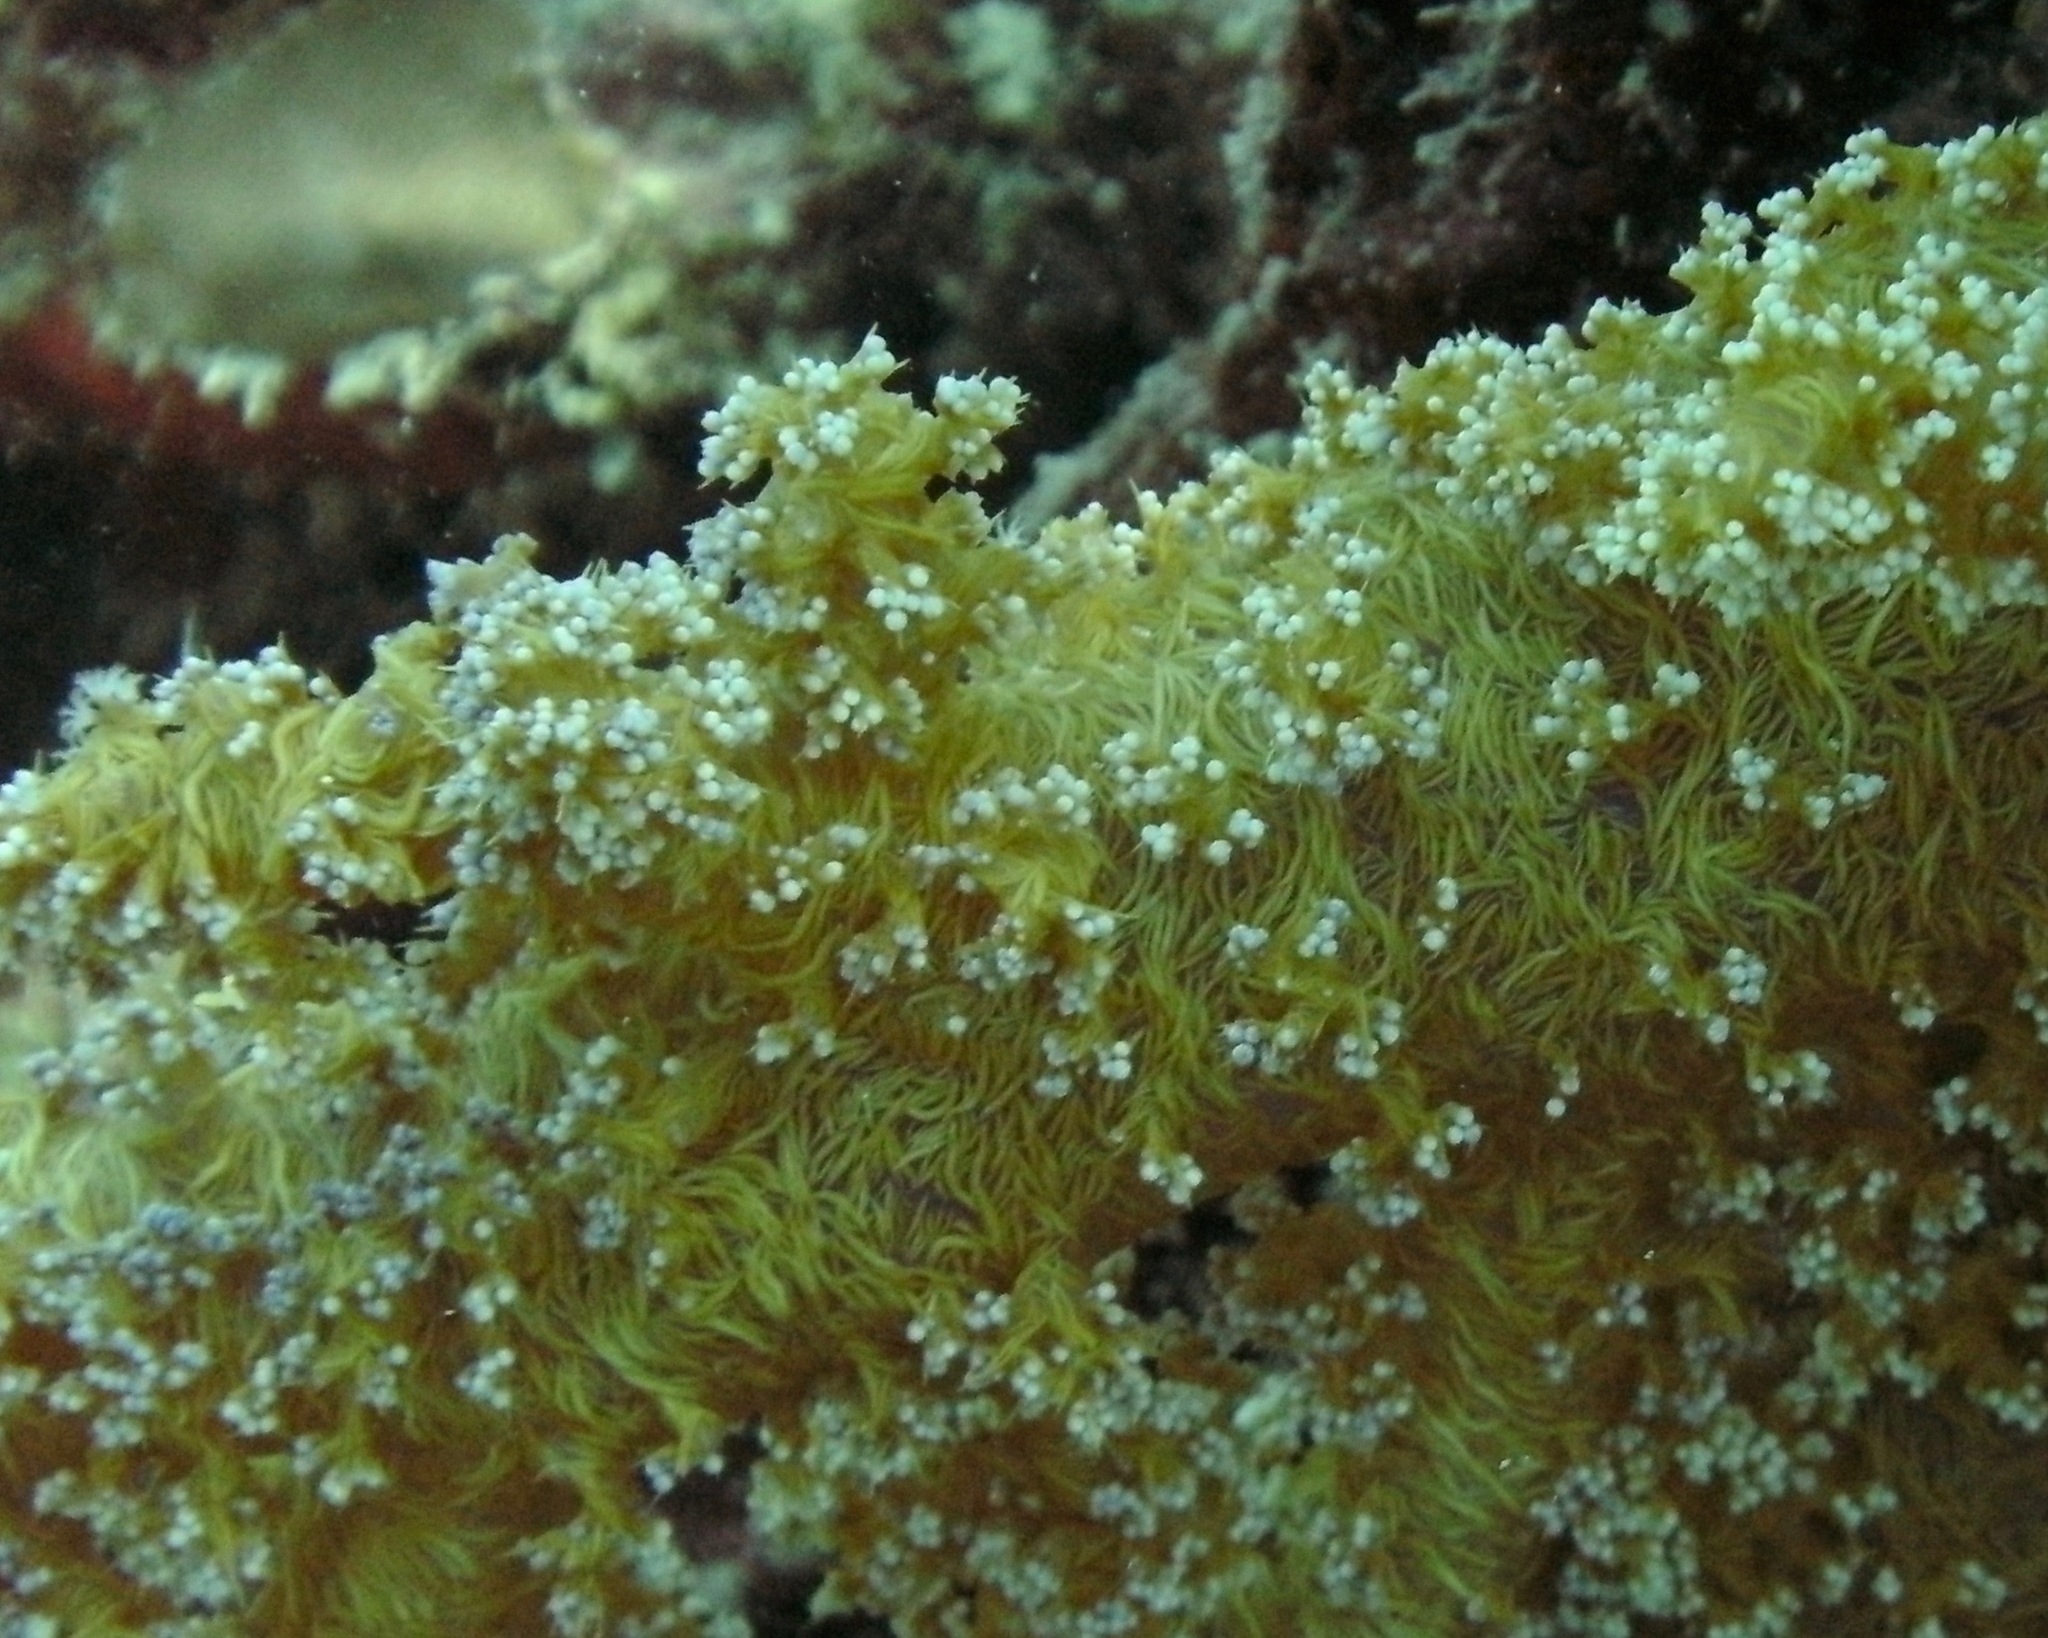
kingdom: Animalia
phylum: Cnidaria
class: Anthozoa
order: Malacalcyonacea
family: Nephtheidae
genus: Dendronephthya
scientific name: Dendronephthya hemprichi
